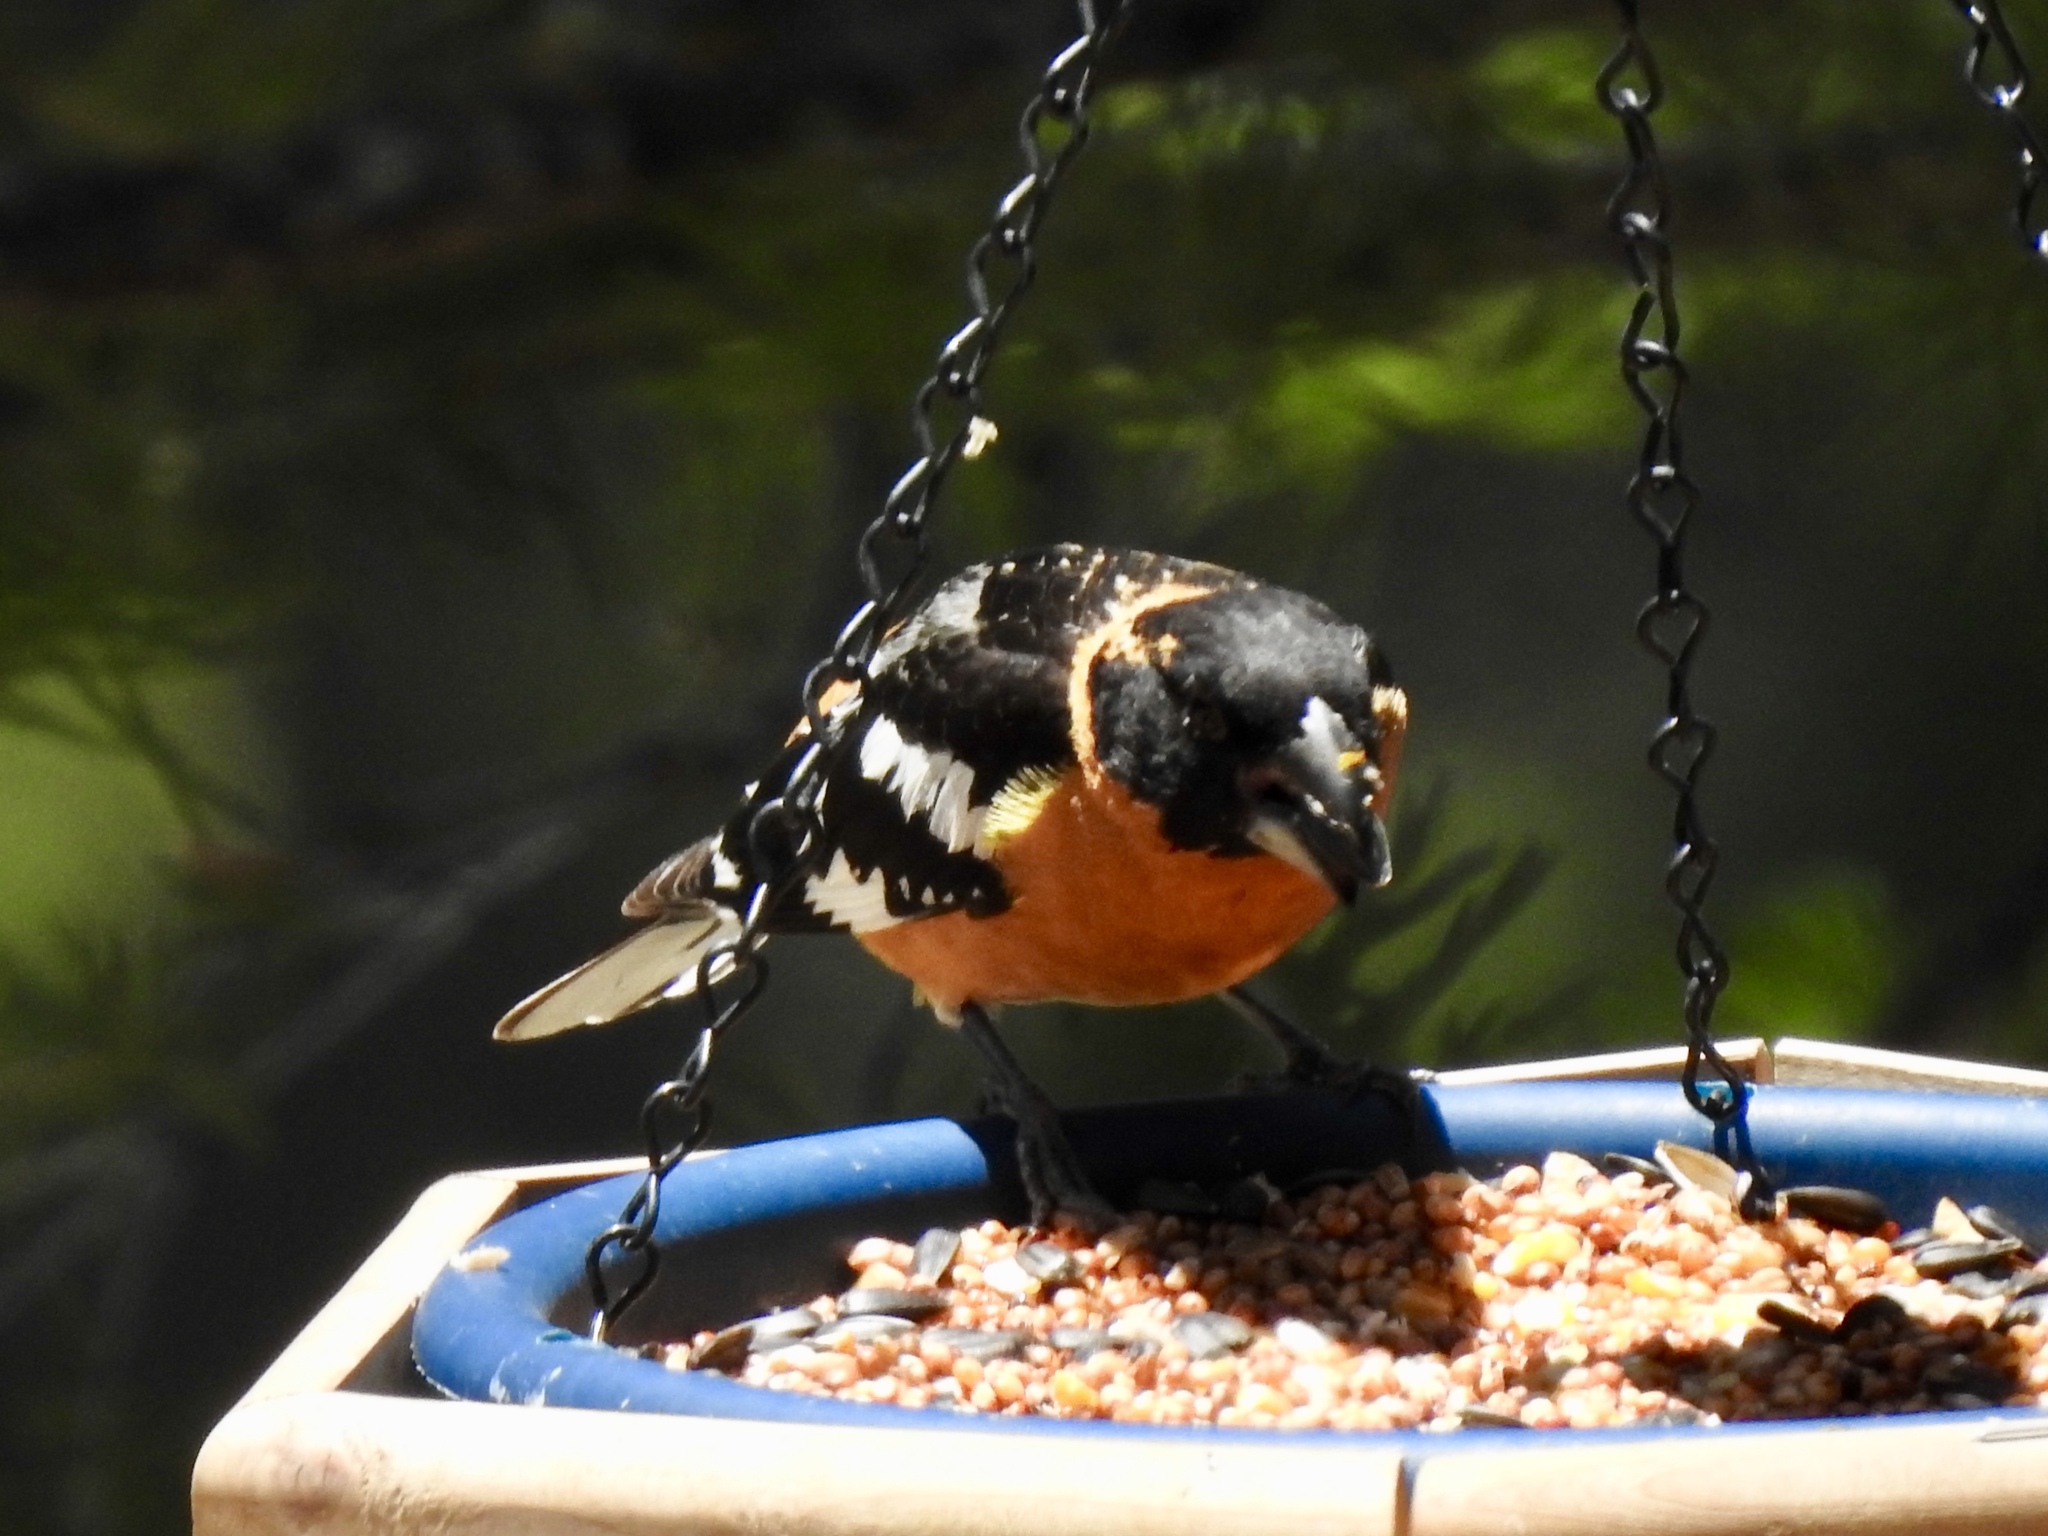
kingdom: Animalia
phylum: Chordata
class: Aves
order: Passeriformes
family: Cardinalidae
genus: Pheucticus
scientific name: Pheucticus melanocephalus
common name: Black-headed grosbeak
